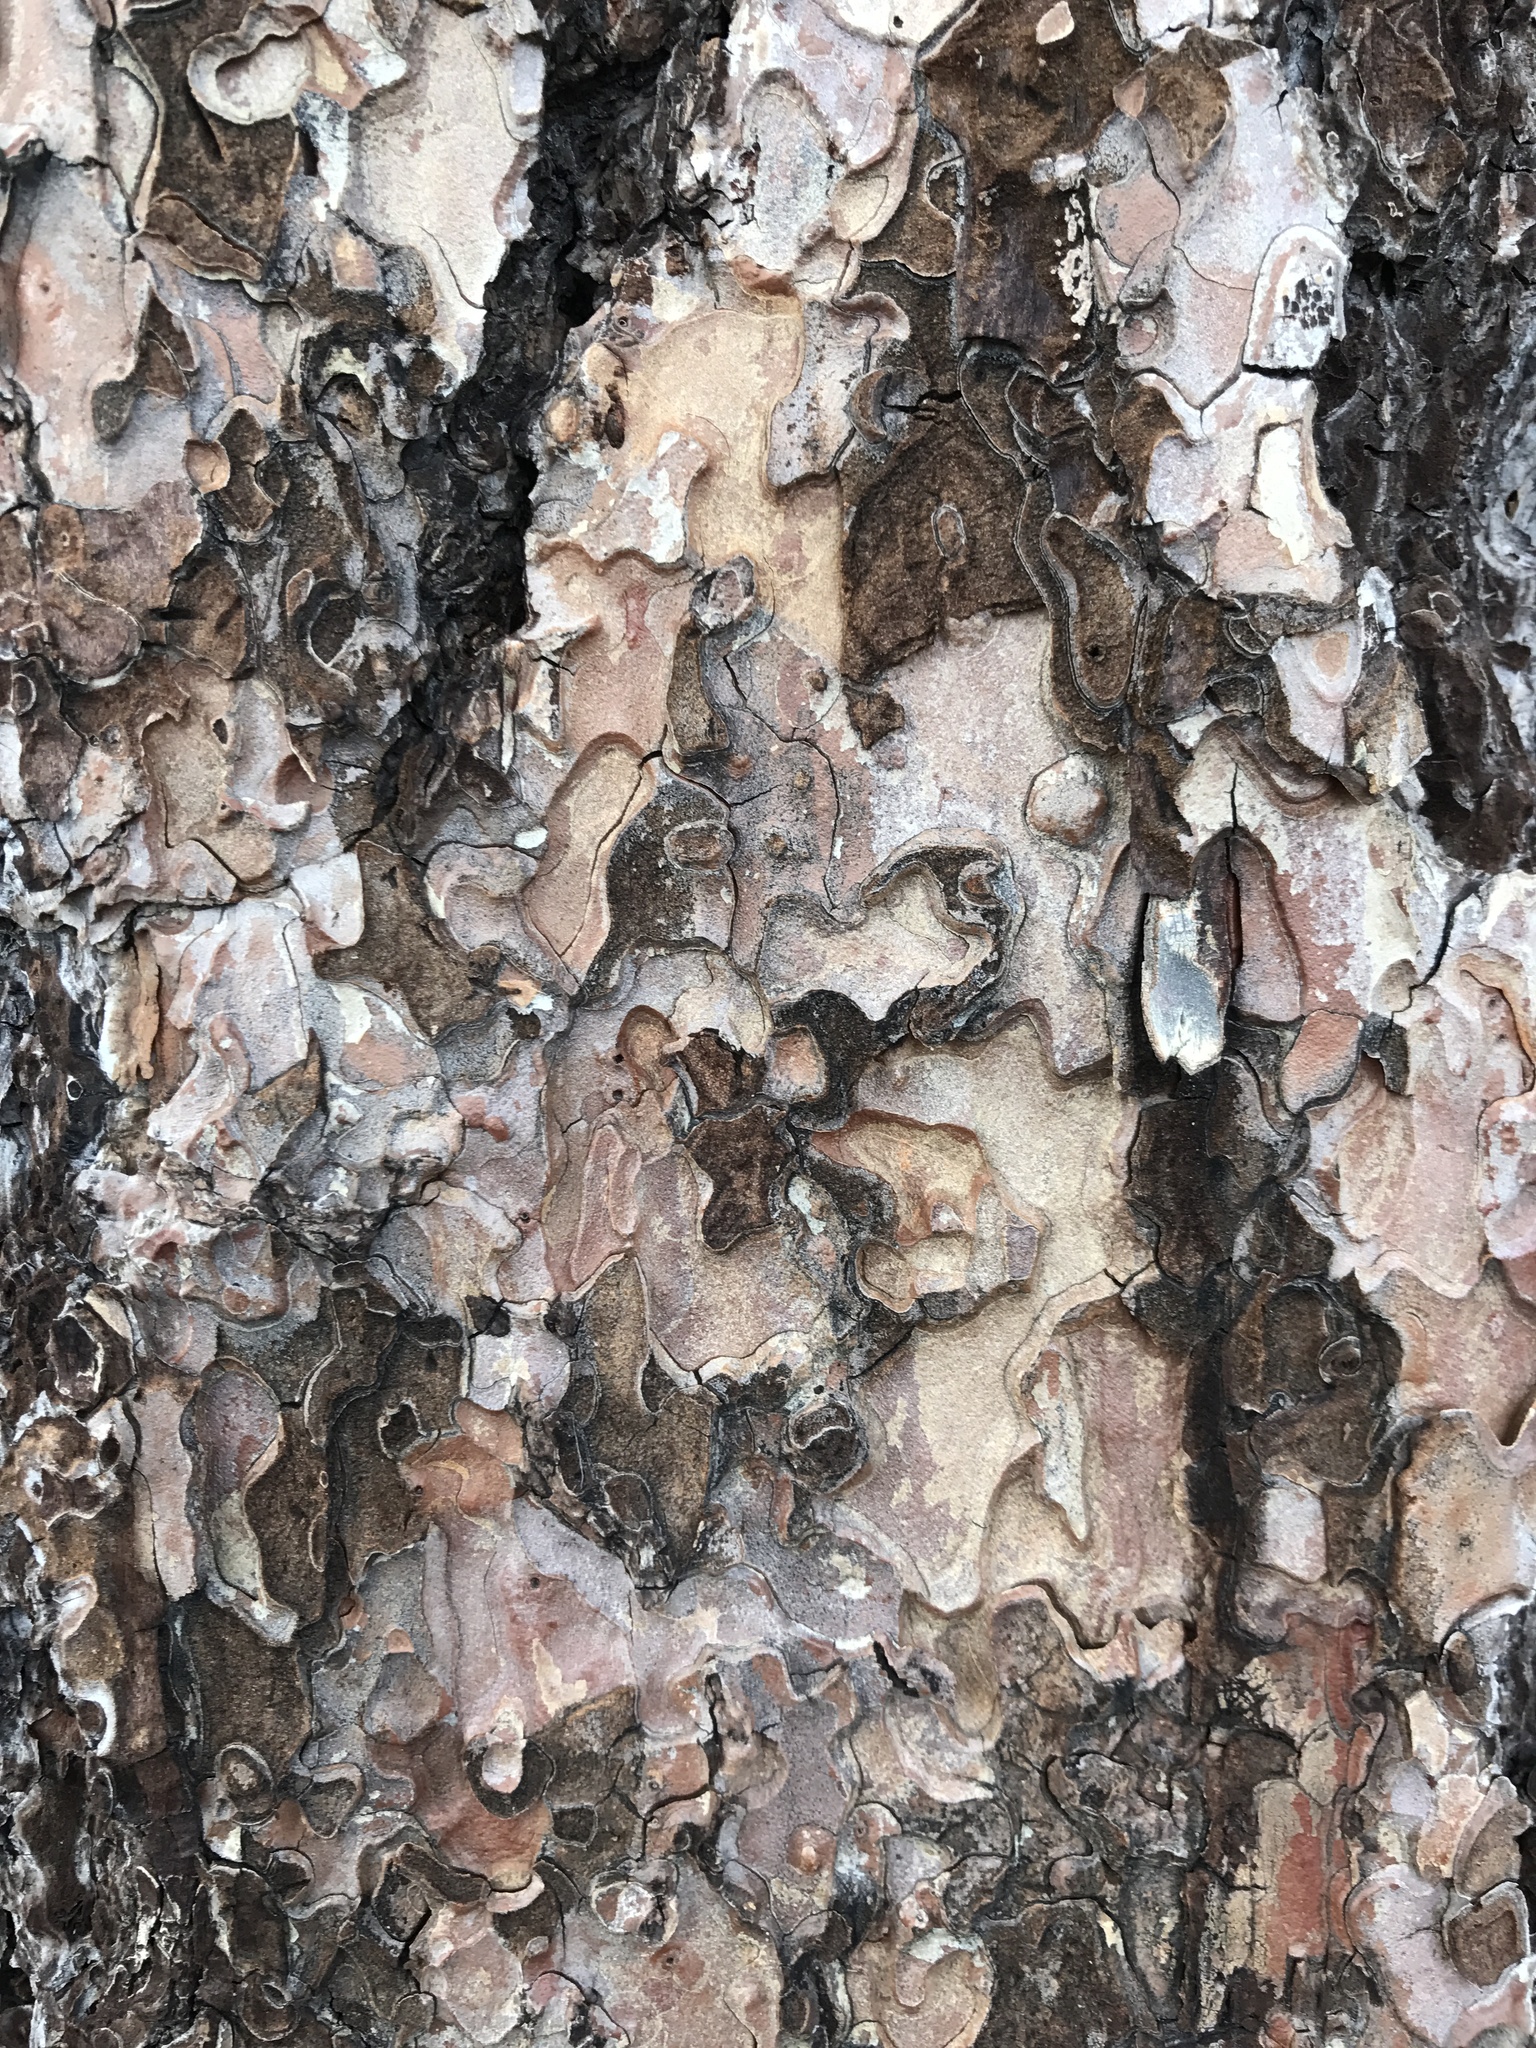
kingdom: Plantae
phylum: Tracheophyta
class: Pinopsida
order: Pinales
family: Pinaceae
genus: Pinus
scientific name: Pinus ponderosa
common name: Western yellow-pine
